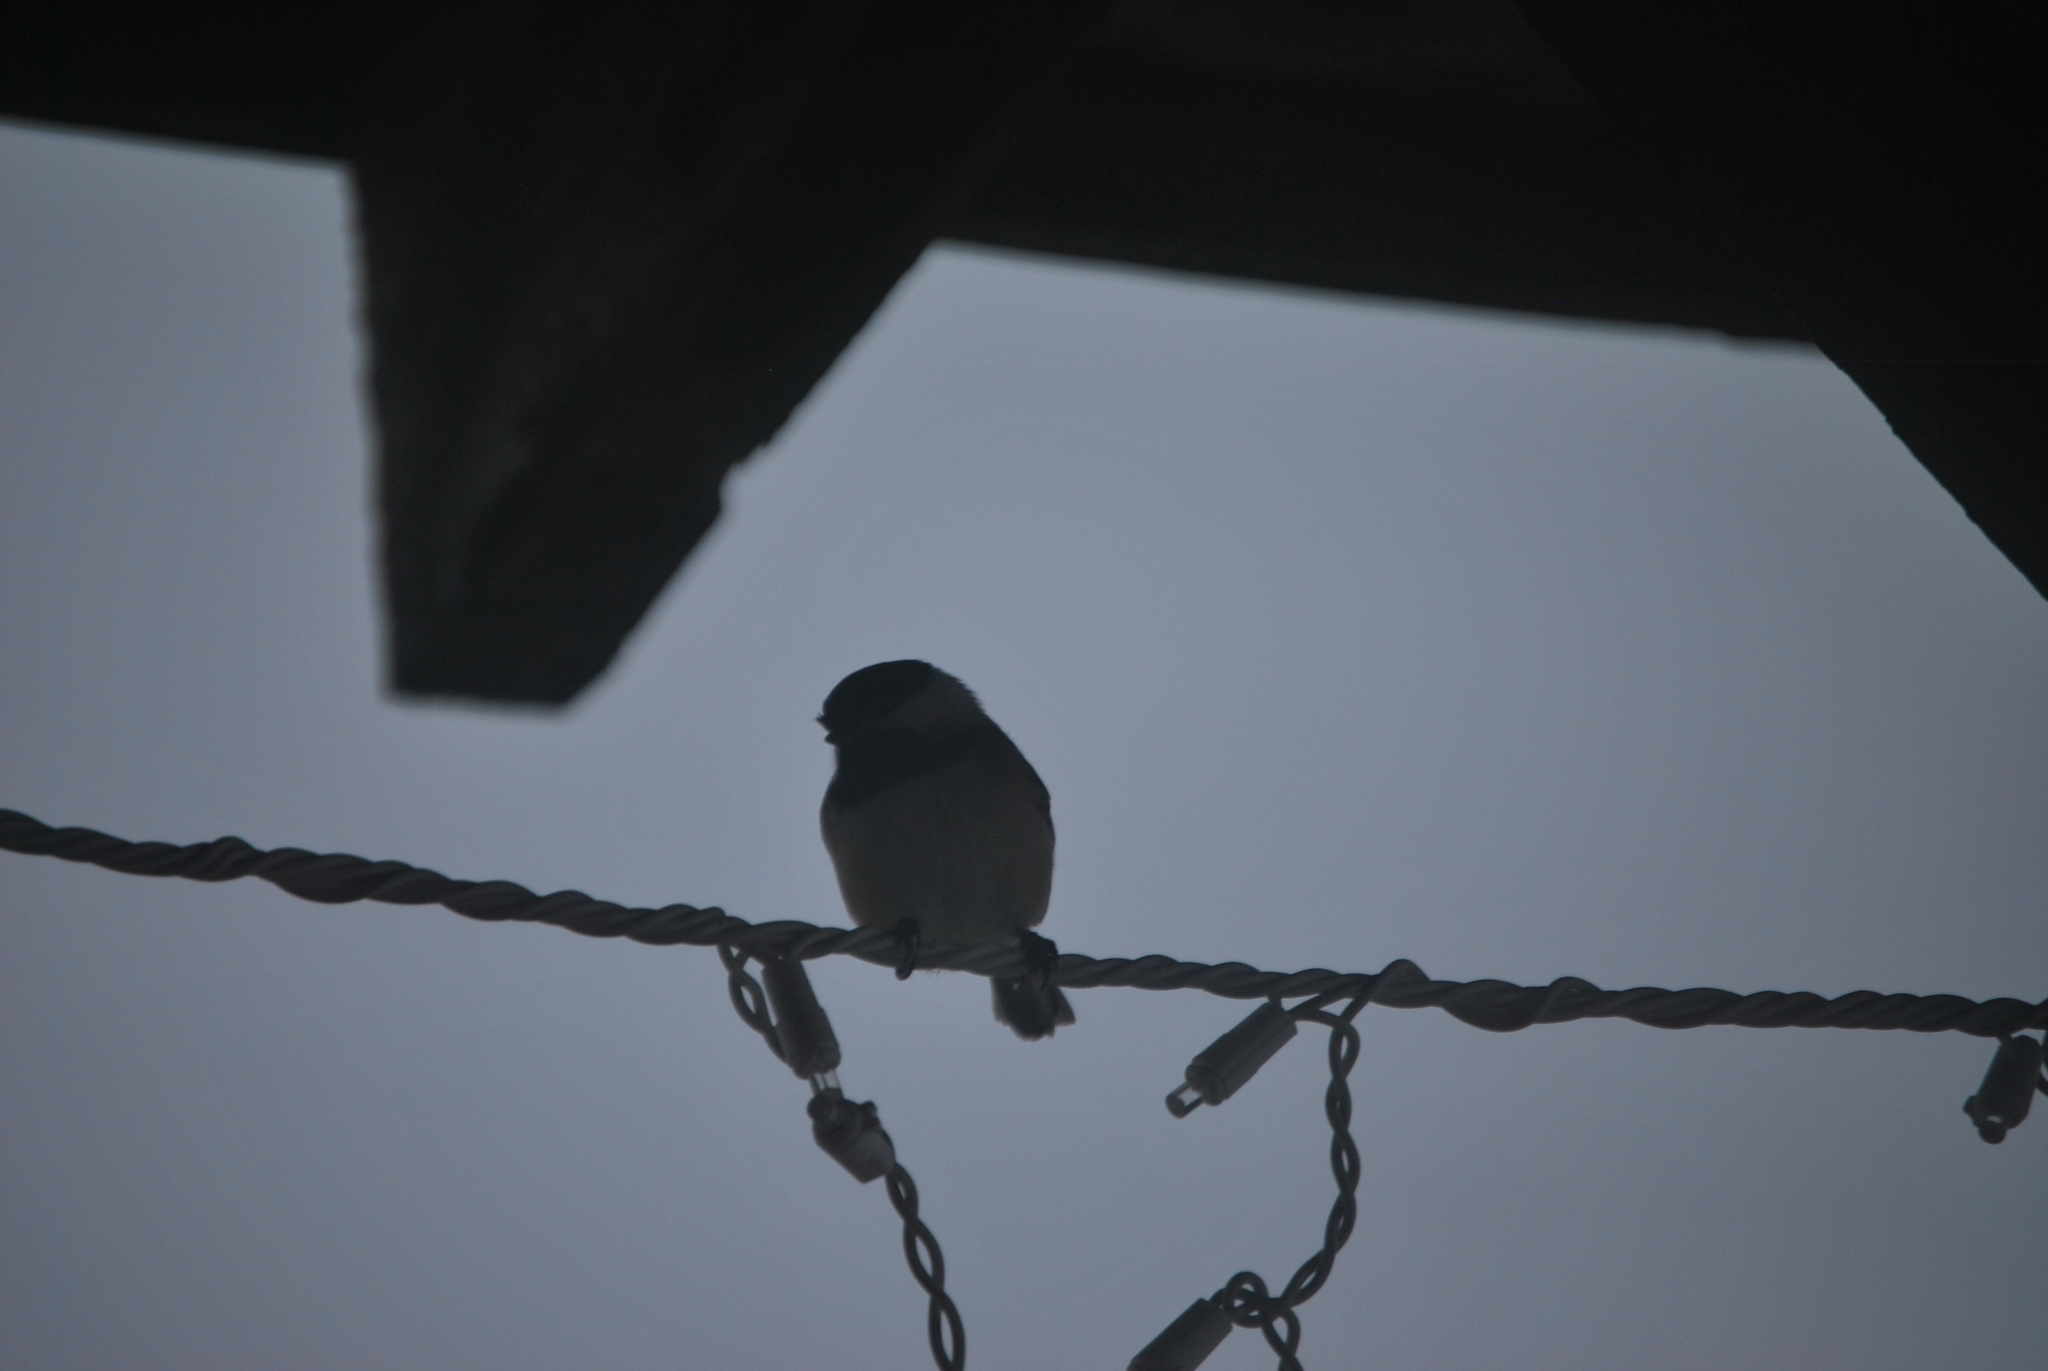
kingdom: Animalia
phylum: Chordata
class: Aves
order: Passeriformes
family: Paridae
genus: Poecile
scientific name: Poecile atricapillus
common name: Black-capped chickadee
